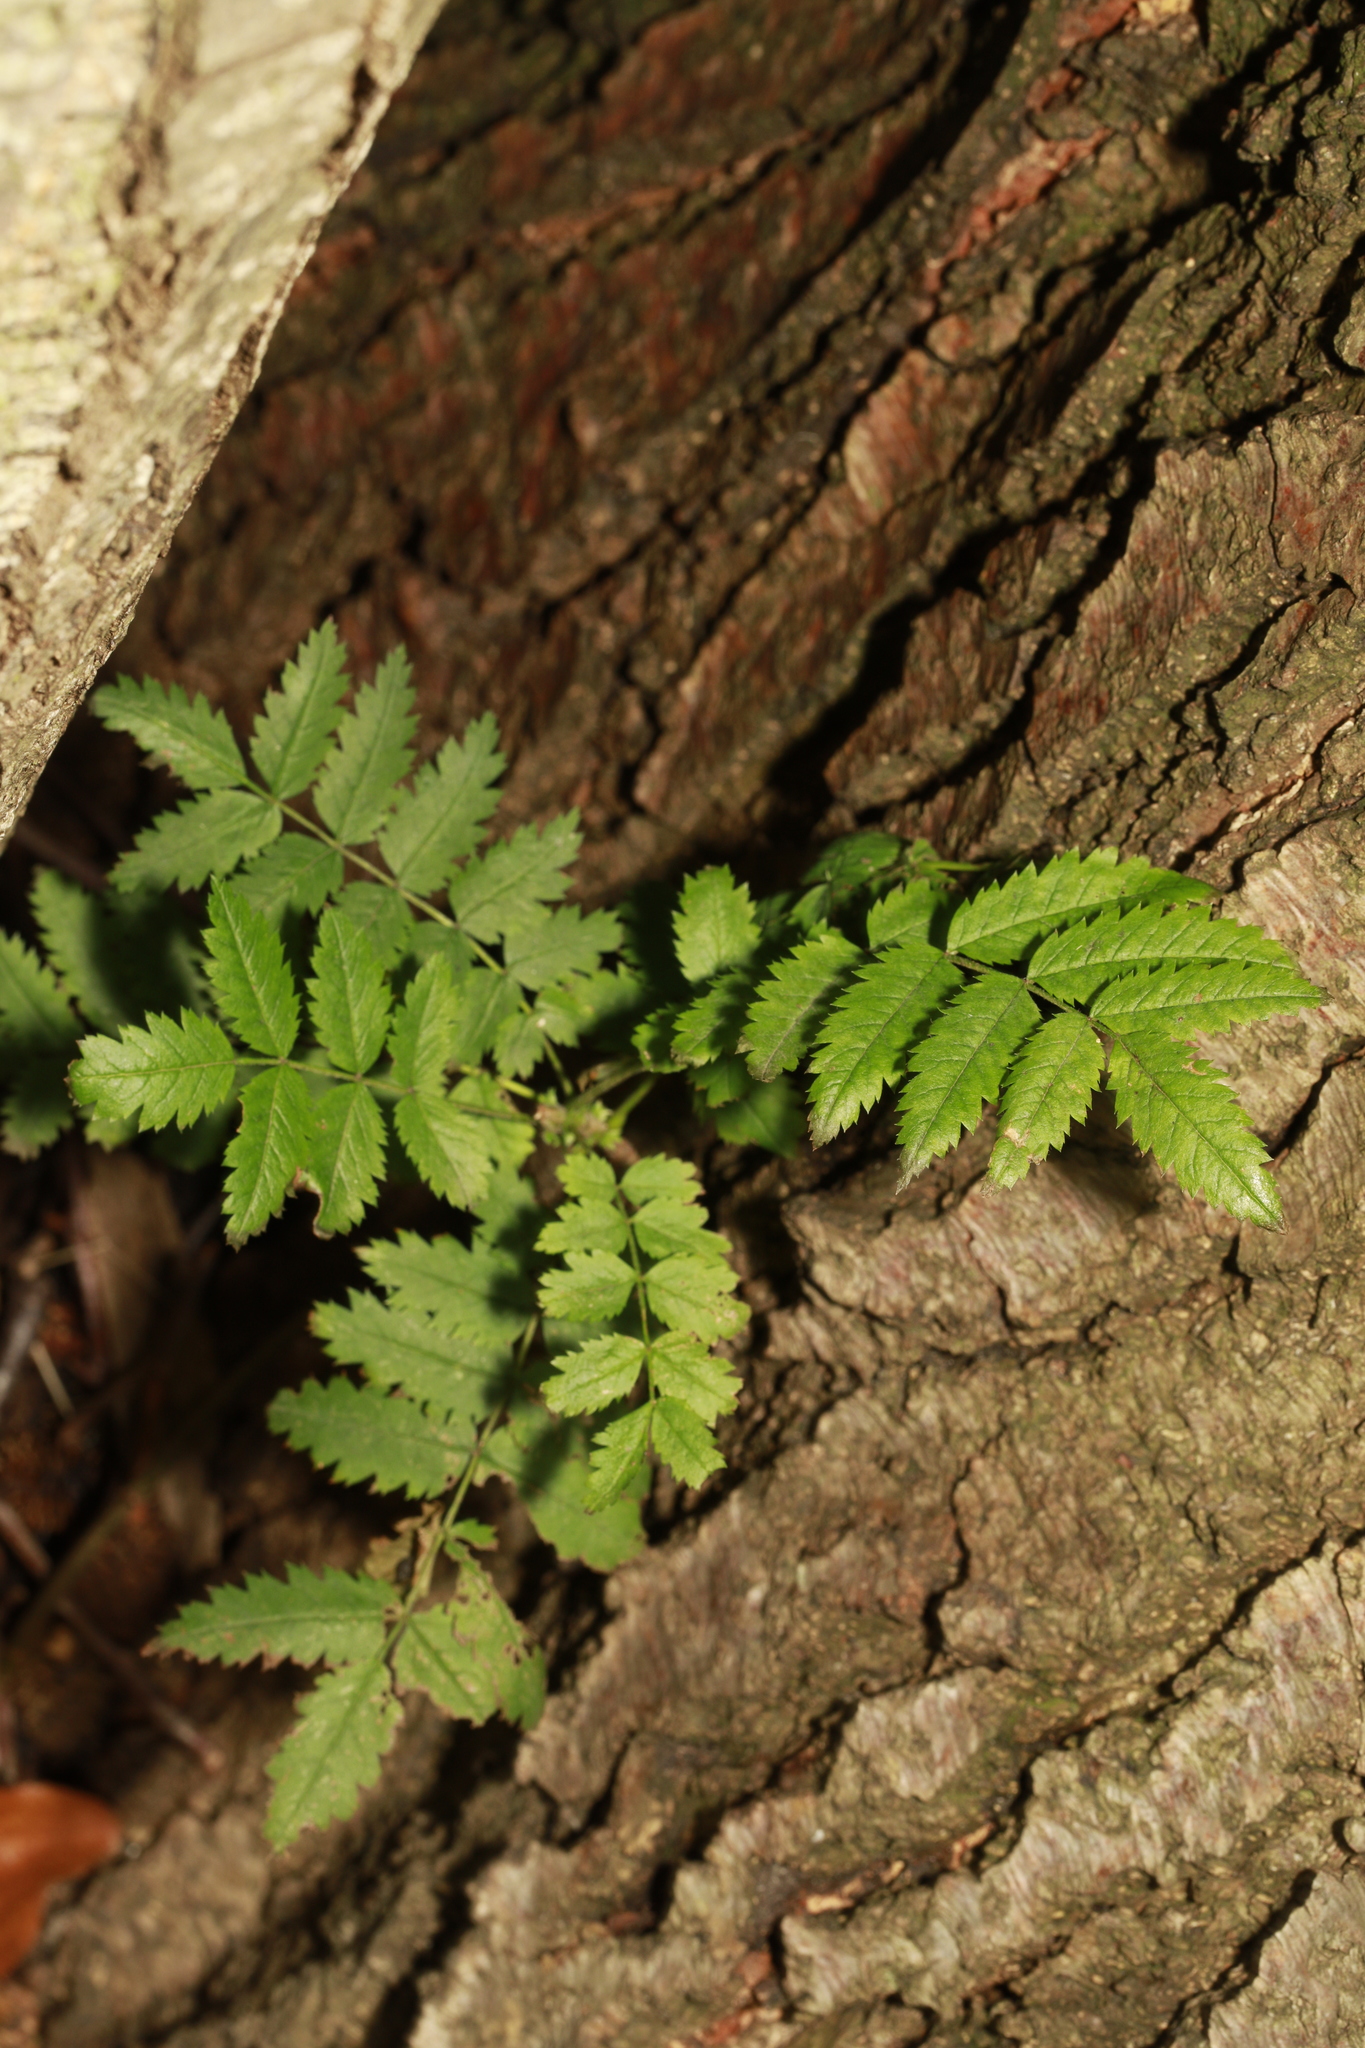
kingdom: Plantae
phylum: Tracheophyta
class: Magnoliopsida
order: Rosales
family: Rosaceae
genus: Sorbus
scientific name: Sorbus aucuparia
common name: Rowan
